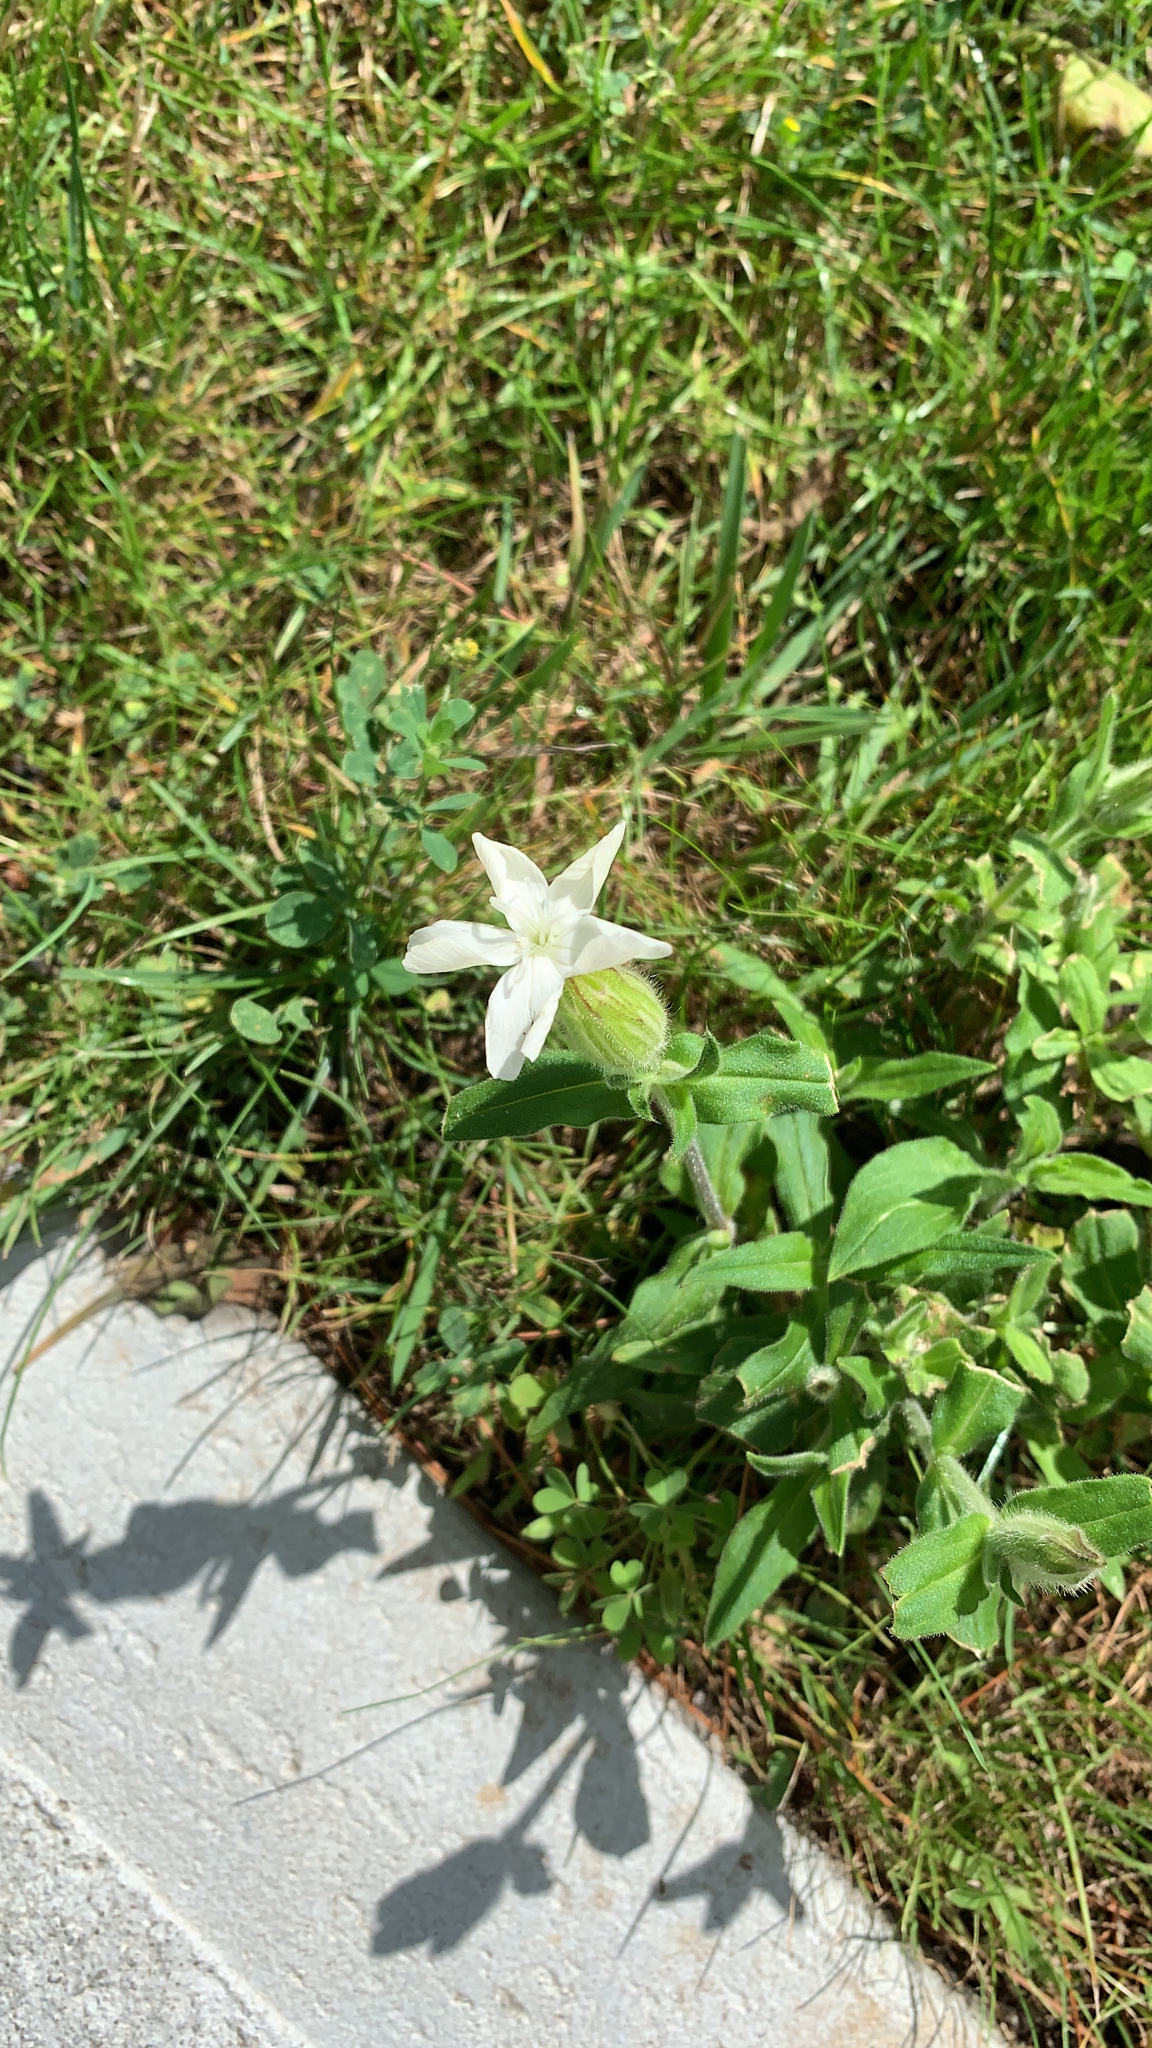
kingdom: Plantae
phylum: Tracheophyta
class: Magnoliopsida
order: Caryophyllales
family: Caryophyllaceae
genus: Silene
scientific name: Silene latifolia
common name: White campion
